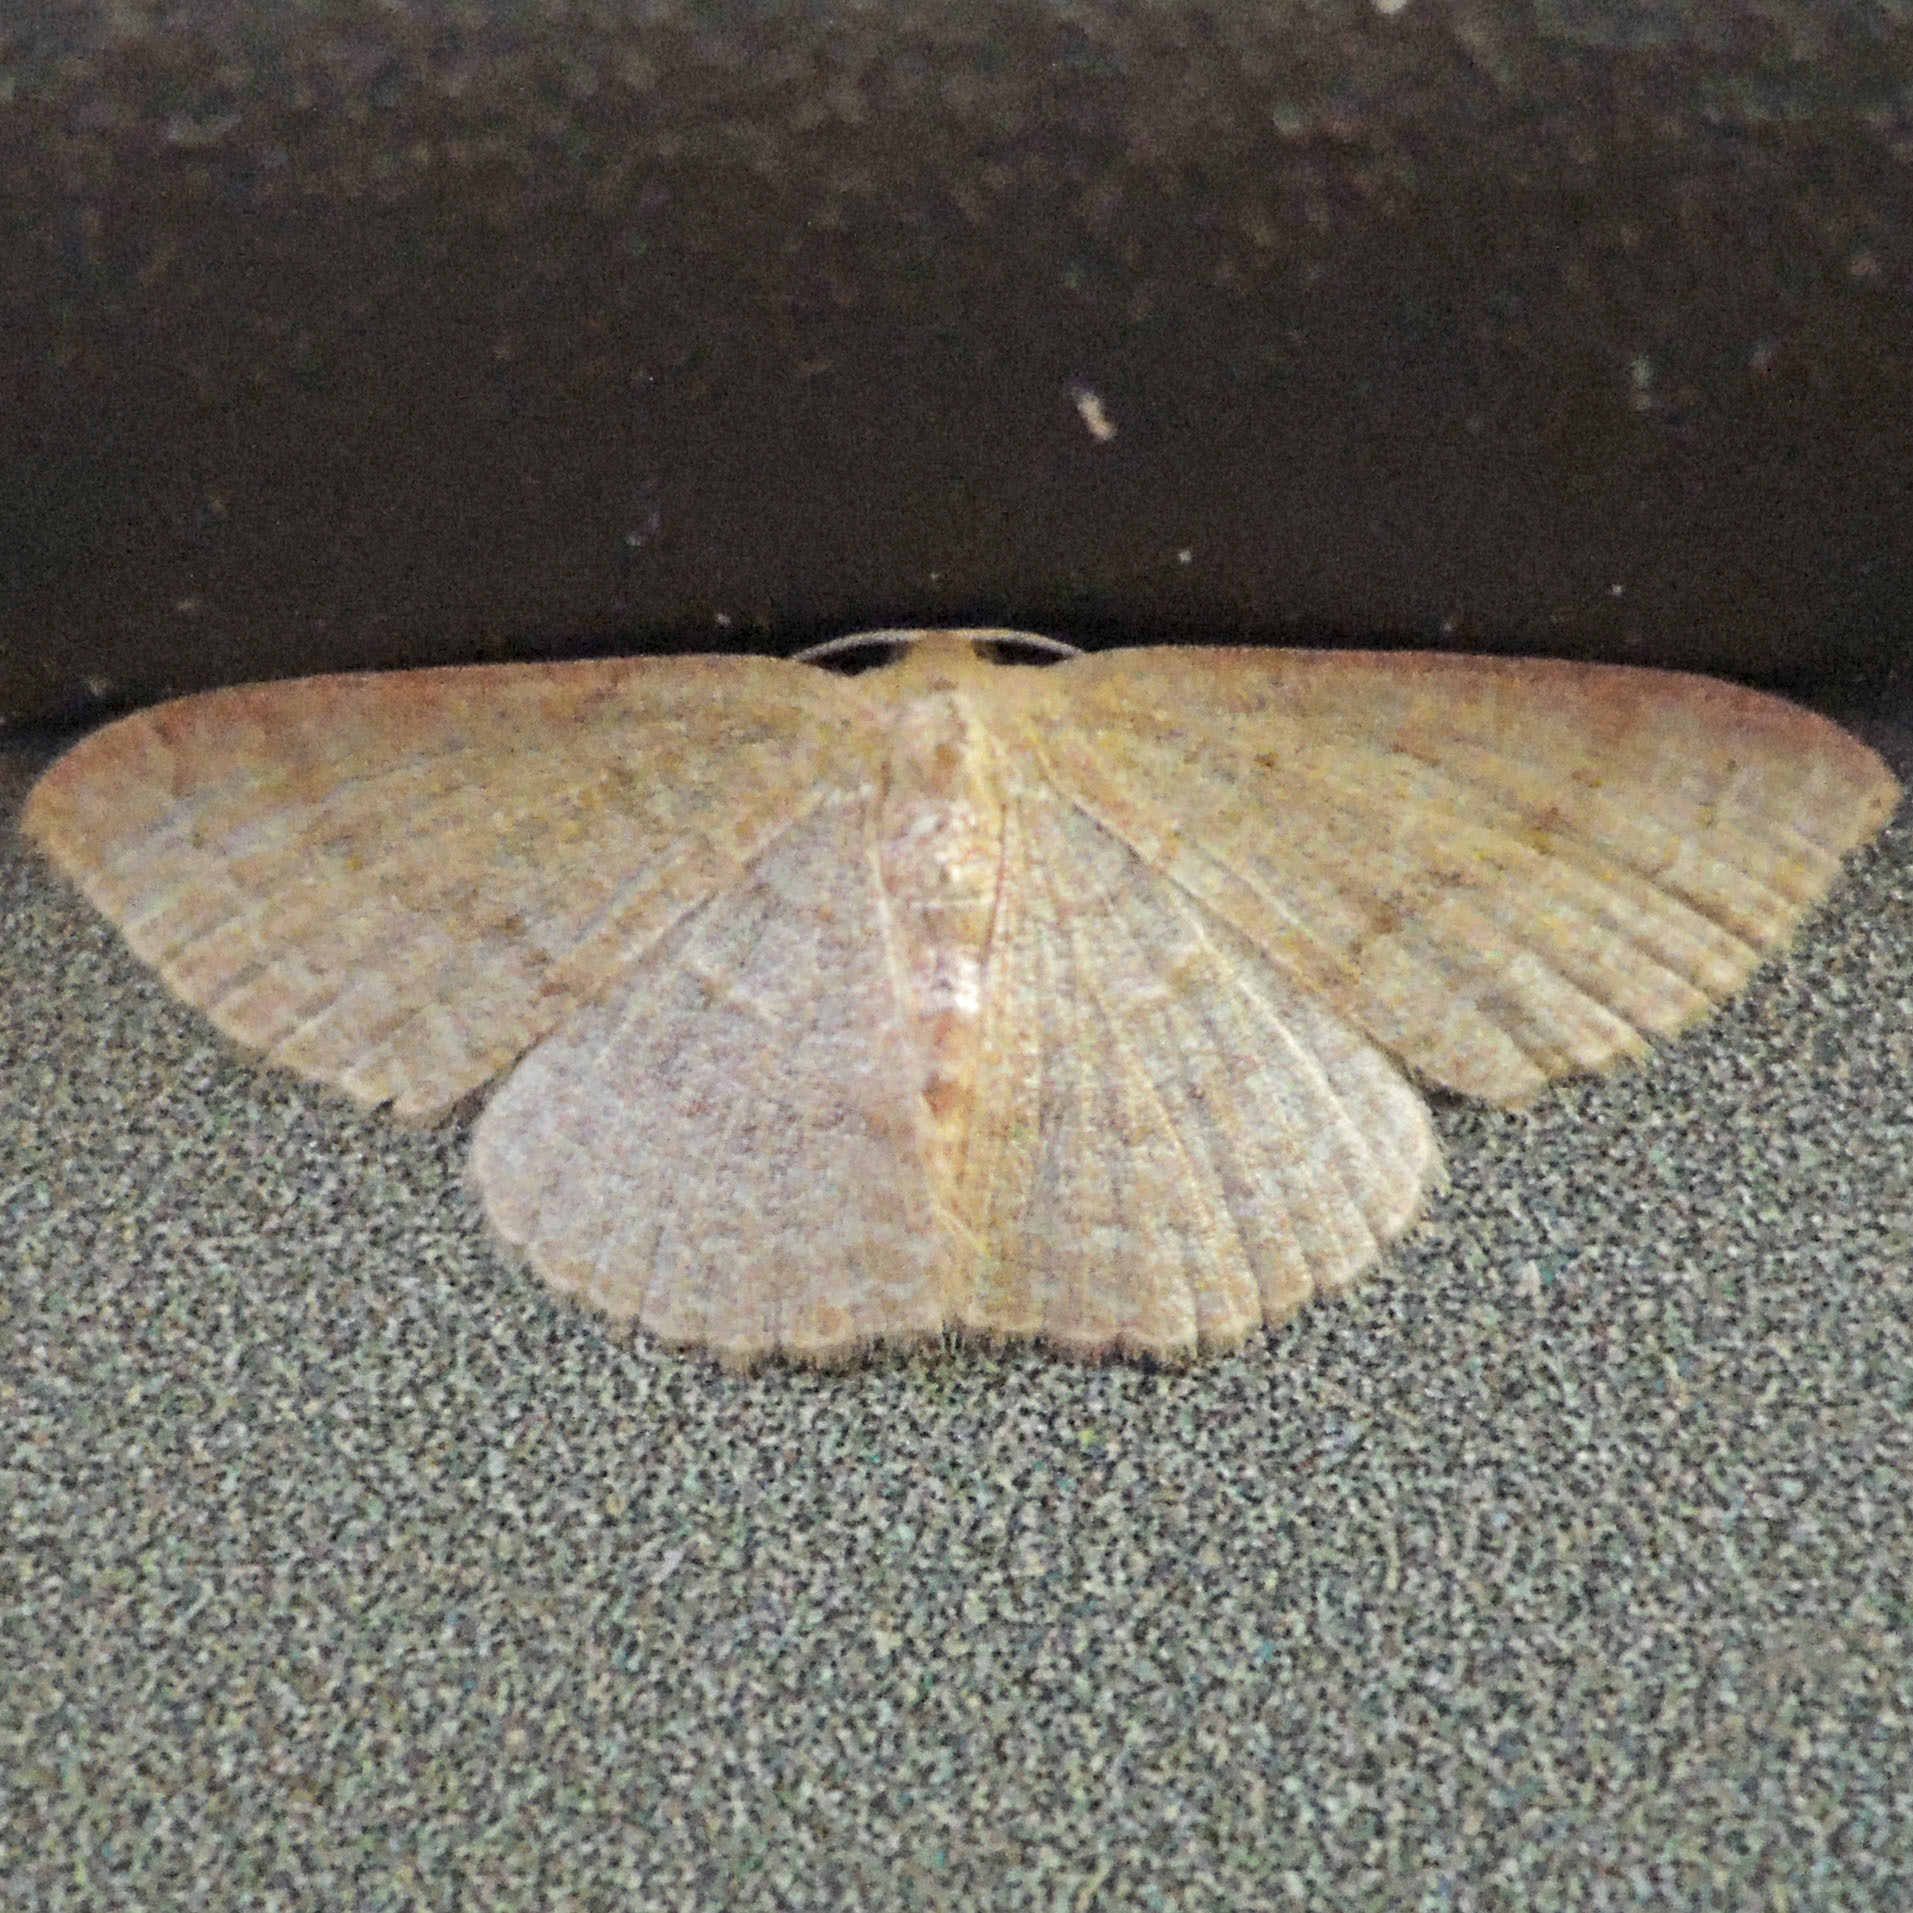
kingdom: Animalia
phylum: Arthropoda
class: Insecta
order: Lepidoptera
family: Geometridae
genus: Pleuroprucha
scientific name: Pleuroprucha insulsaria
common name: Common tan wave
